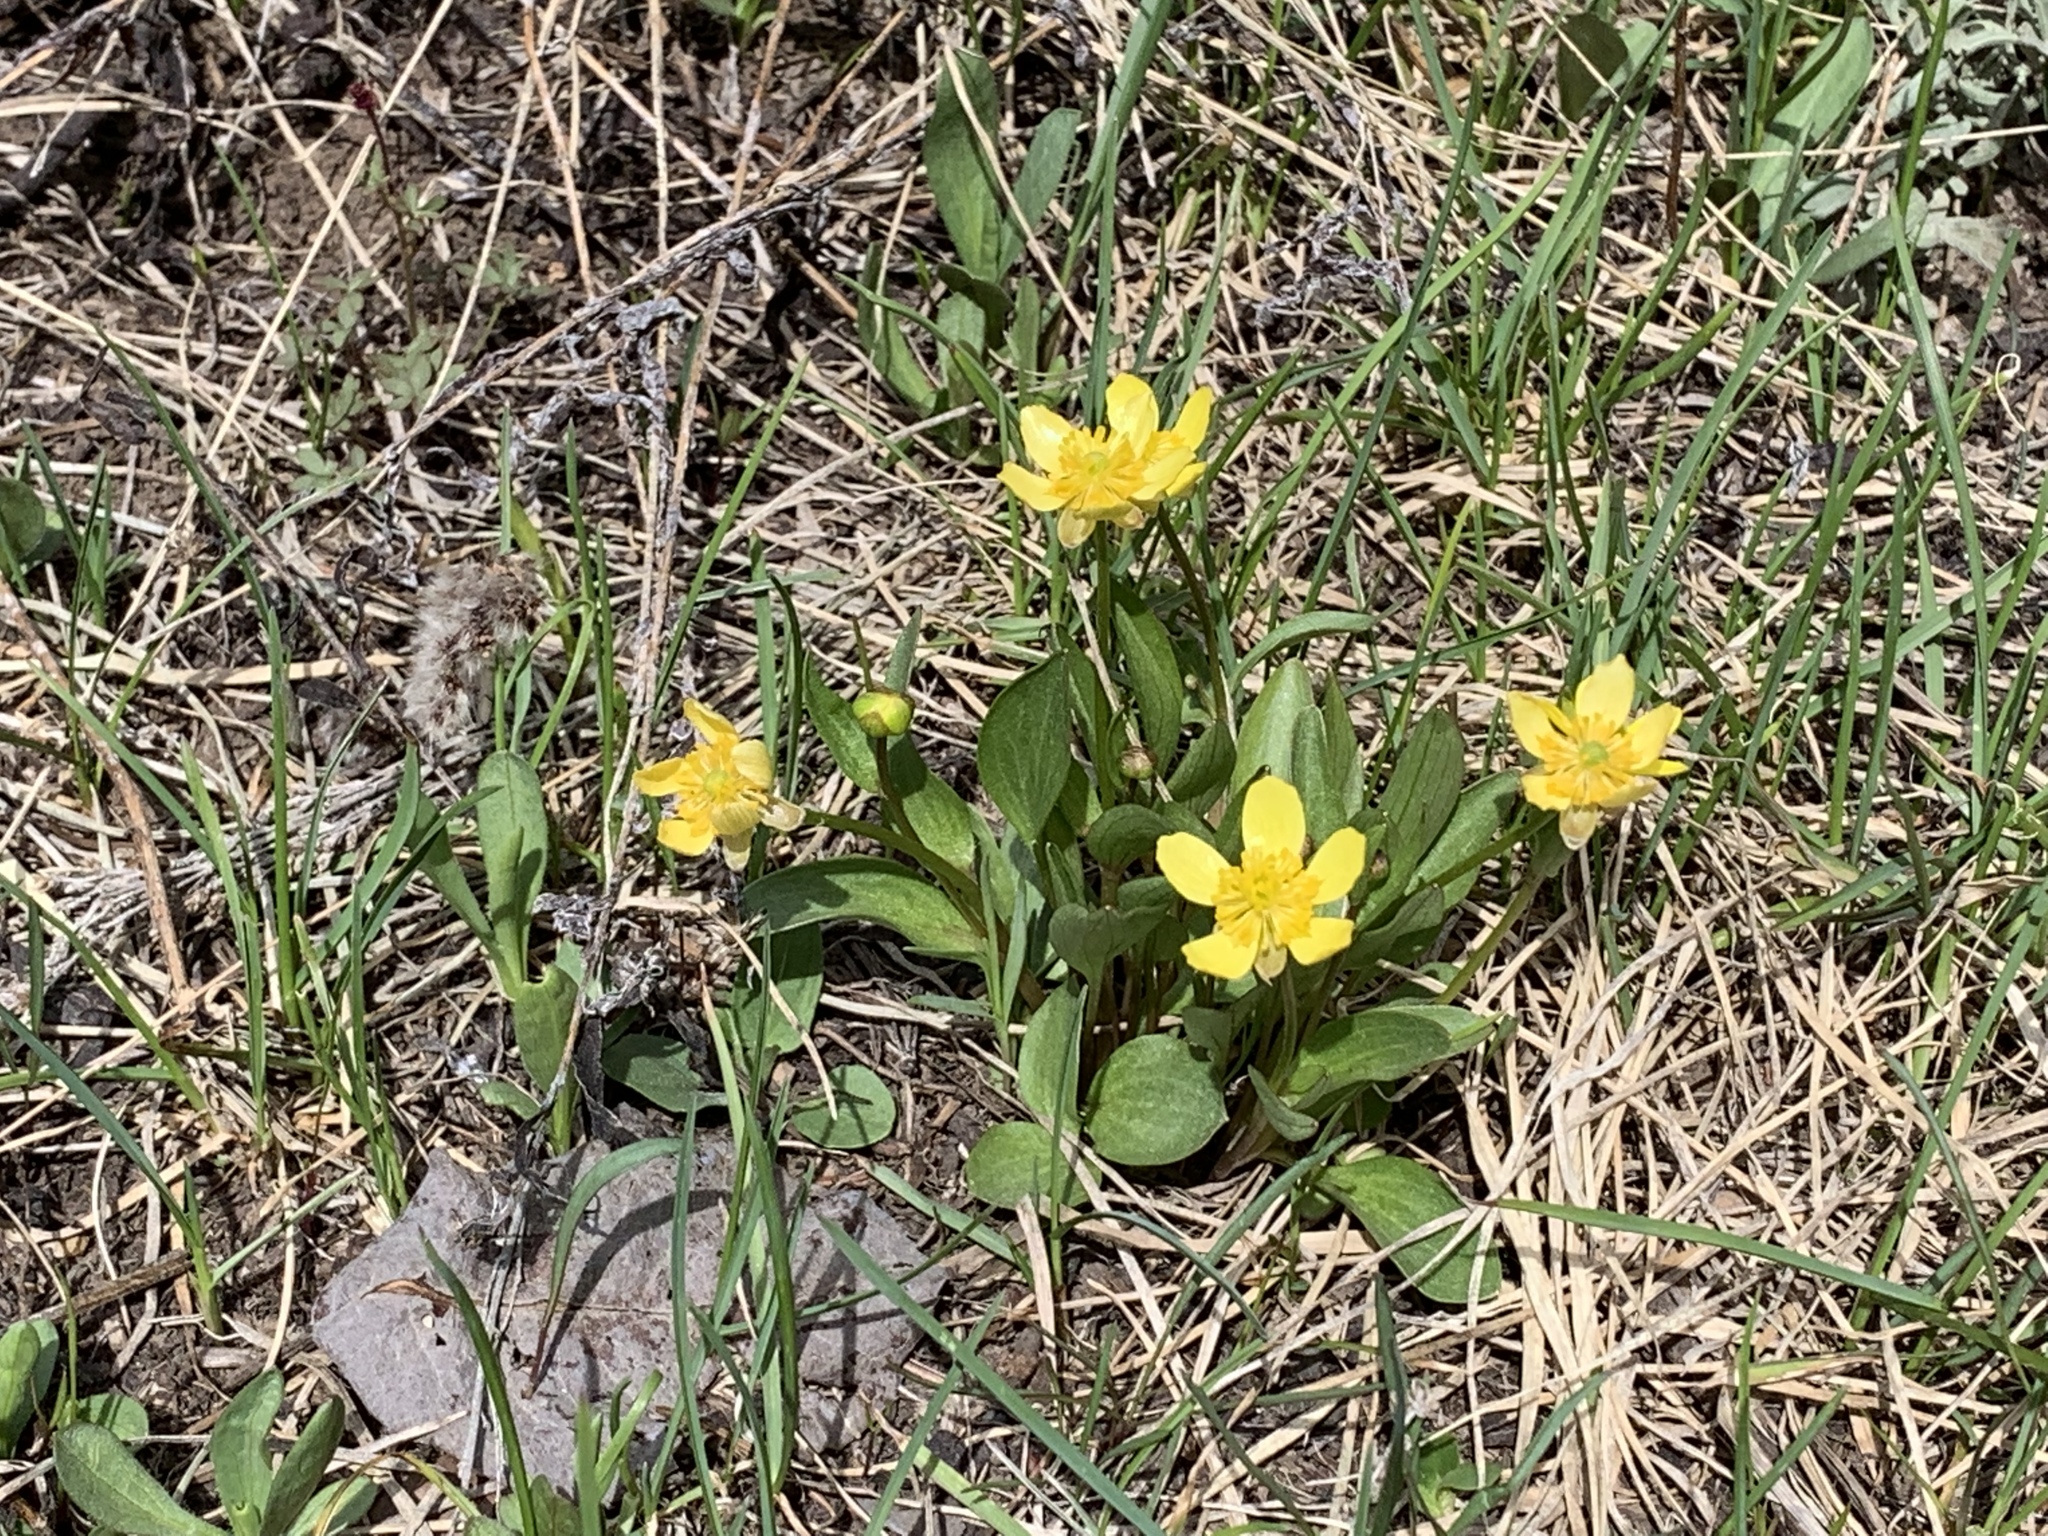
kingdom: Plantae
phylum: Tracheophyta
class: Magnoliopsida
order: Ranunculales
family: Ranunculaceae
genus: Ranunculus
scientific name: Ranunculus glaberrimus
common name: Sagebrush buttercup
